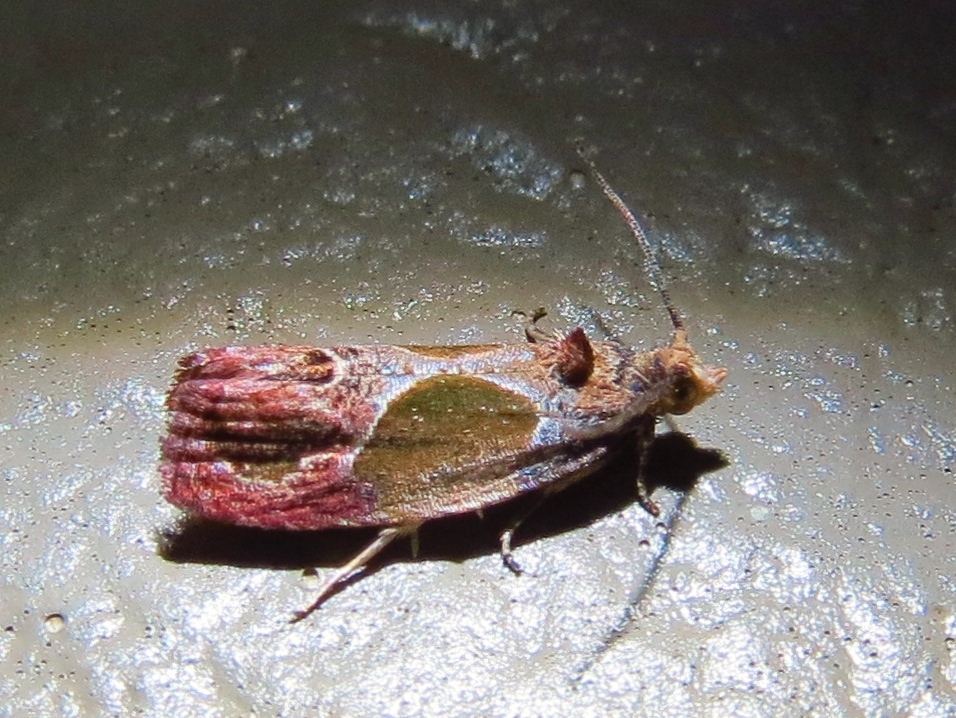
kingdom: Animalia
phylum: Arthropoda
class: Insecta
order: Lepidoptera
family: Tortricidae
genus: Eumarozia
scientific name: Eumarozia malachitana
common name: Sculptured moth
